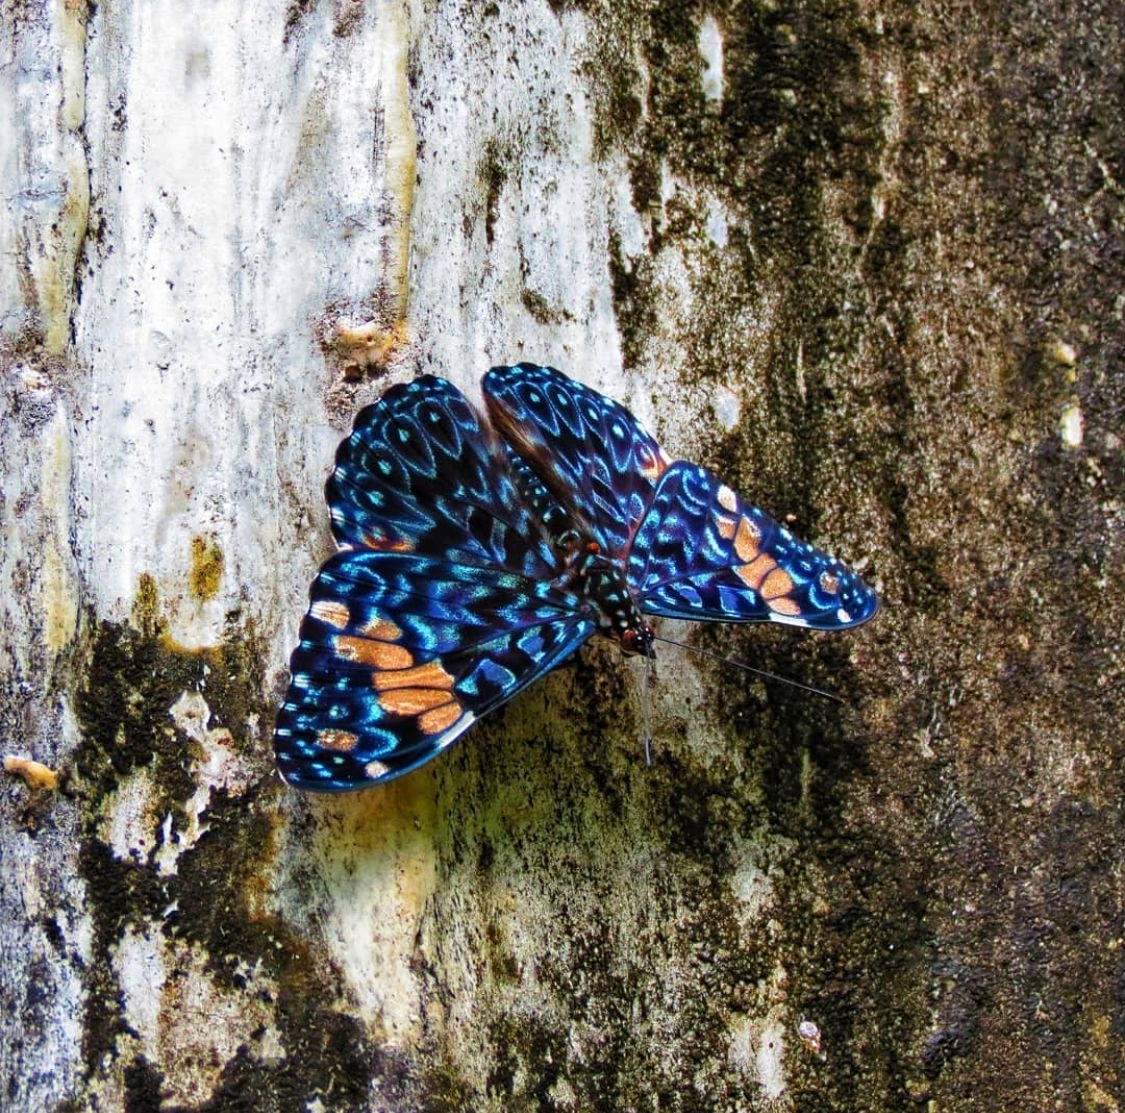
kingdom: Animalia
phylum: Arthropoda
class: Insecta
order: Lepidoptera
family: Nymphalidae
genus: Hamadryas
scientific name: Hamadryas amphinome
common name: Red cracker
